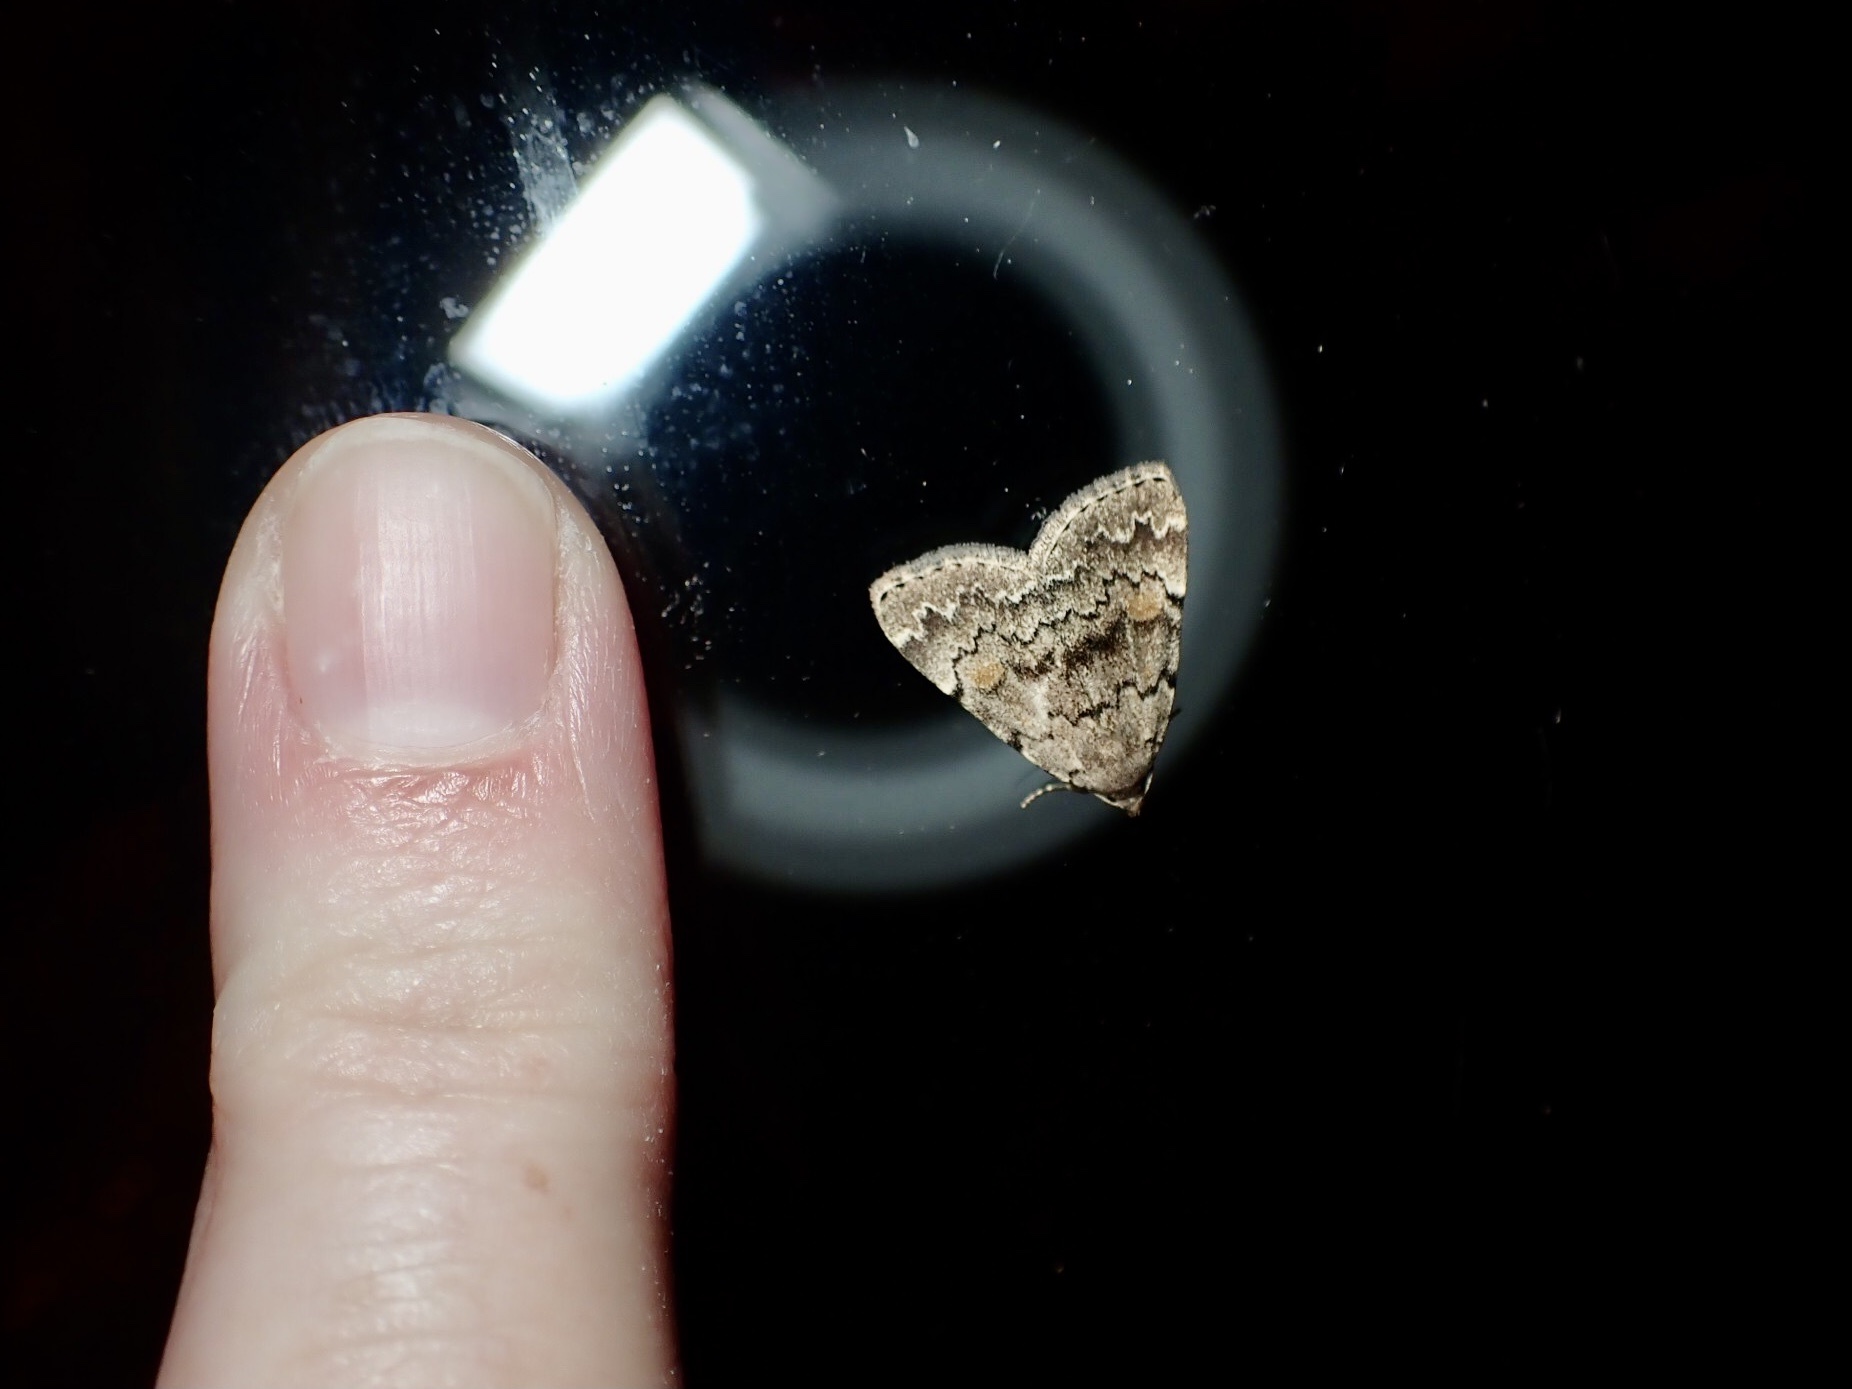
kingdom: Animalia
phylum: Arthropoda
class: Insecta
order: Lepidoptera
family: Erebidae
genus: Idia
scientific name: Idia aemula
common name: Common idia moth
